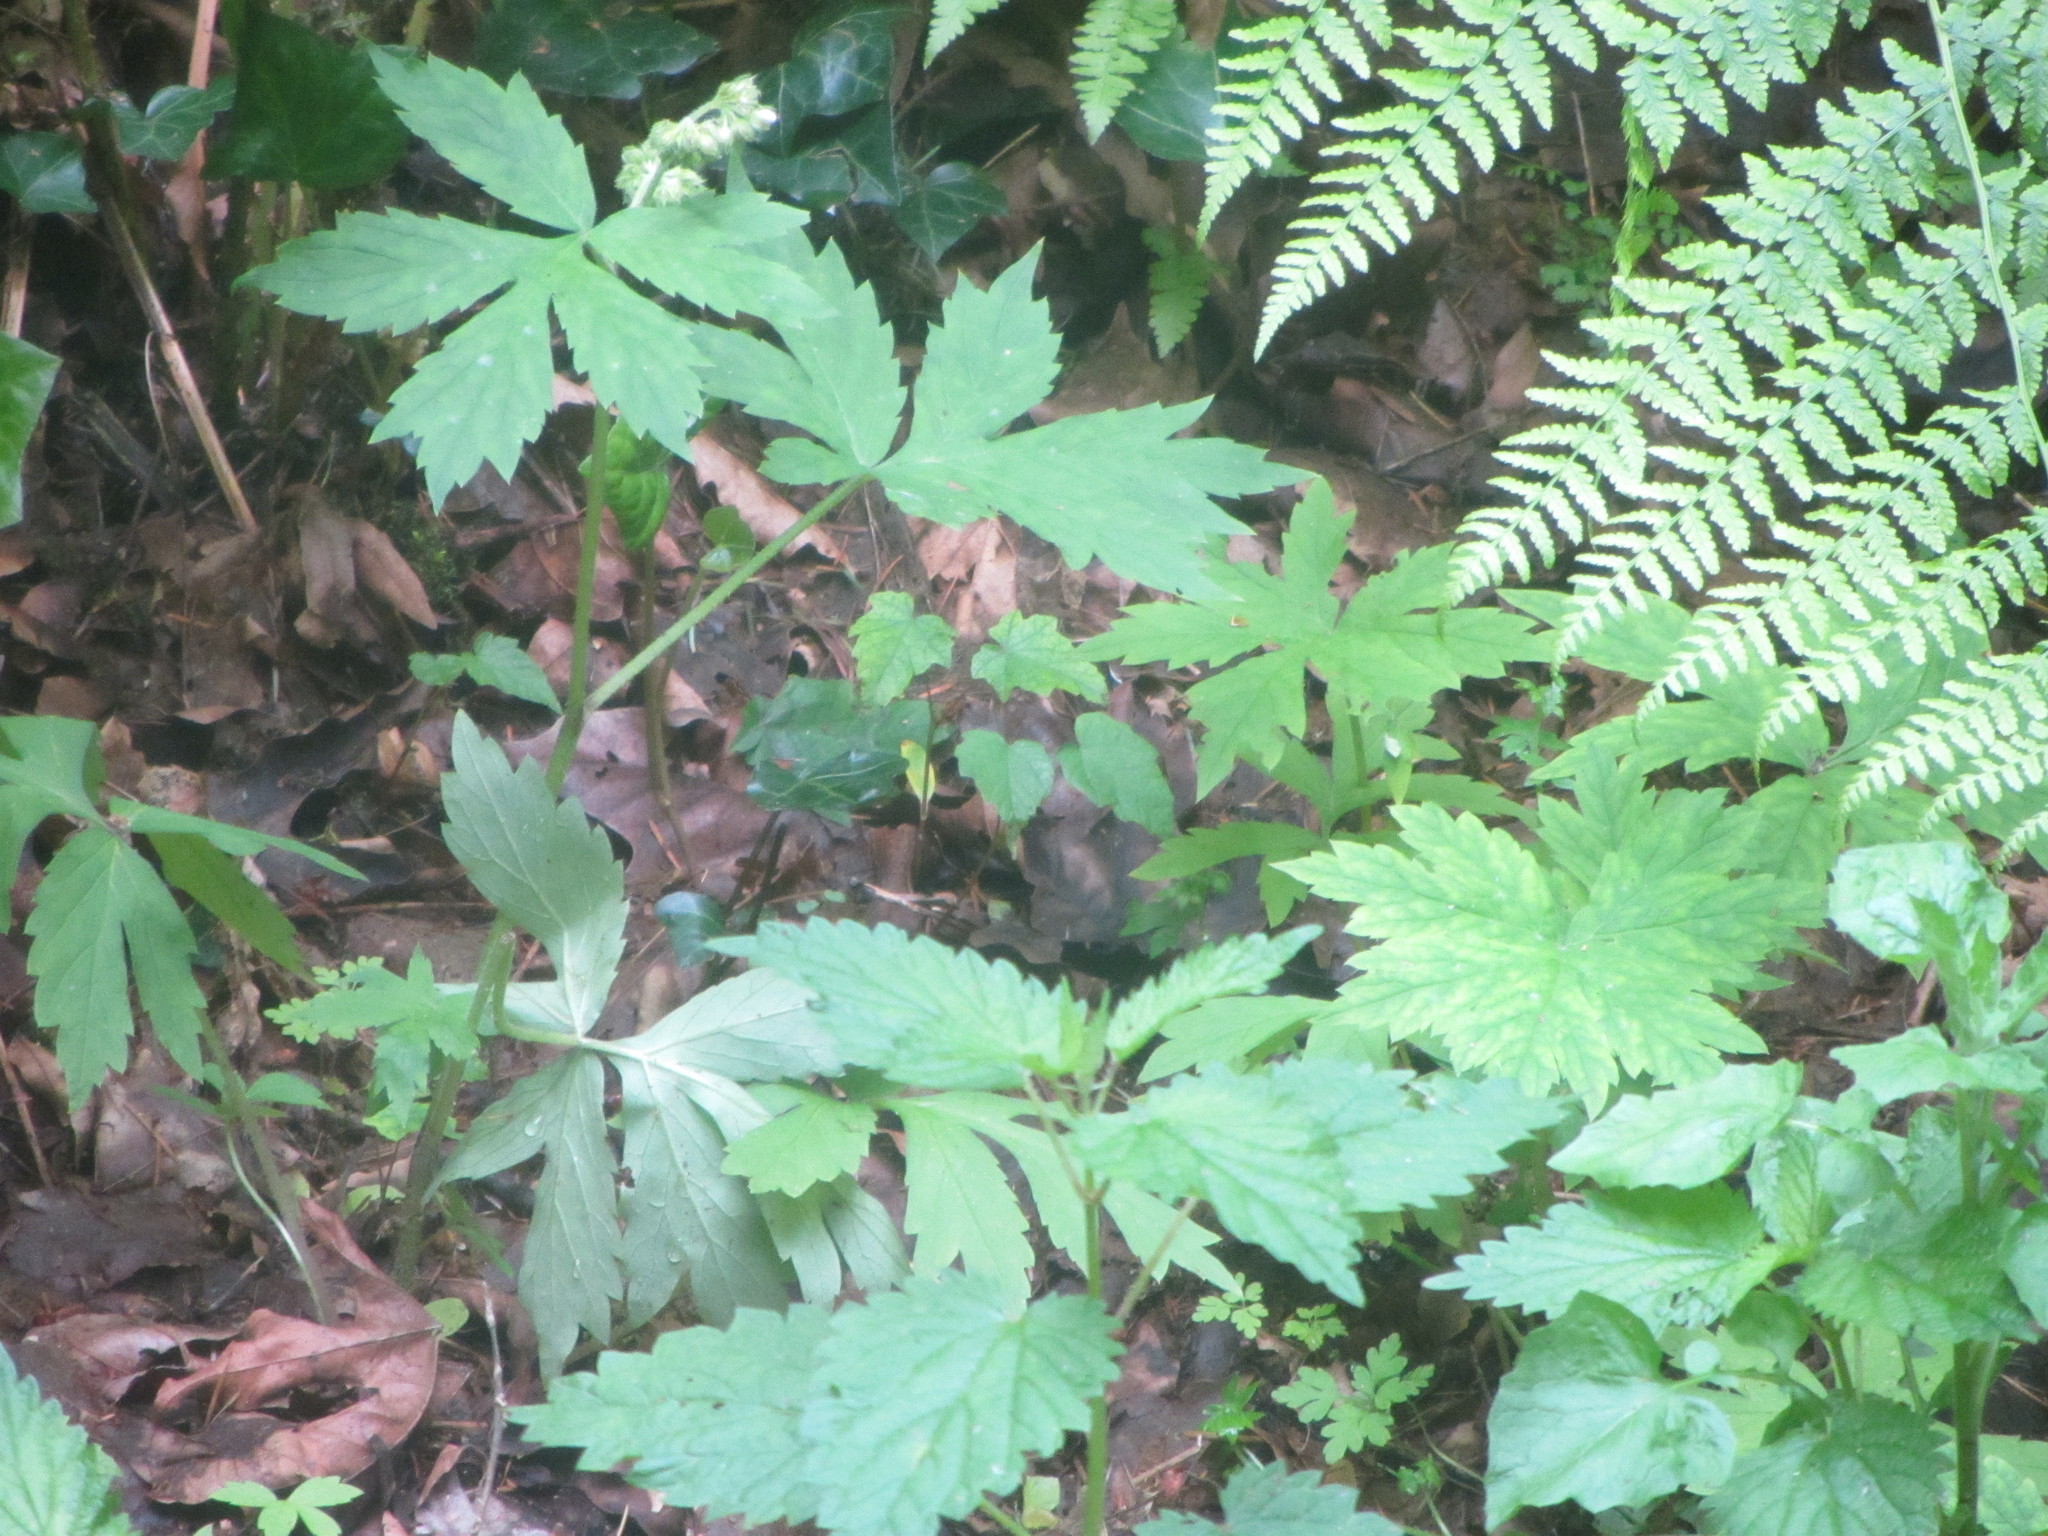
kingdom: Plantae
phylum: Tracheophyta
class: Magnoliopsida
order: Boraginales
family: Hydrophyllaceae
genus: Hydrophyllum
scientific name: Hydrophyllum tenuipes
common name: Pacific waterleaf
